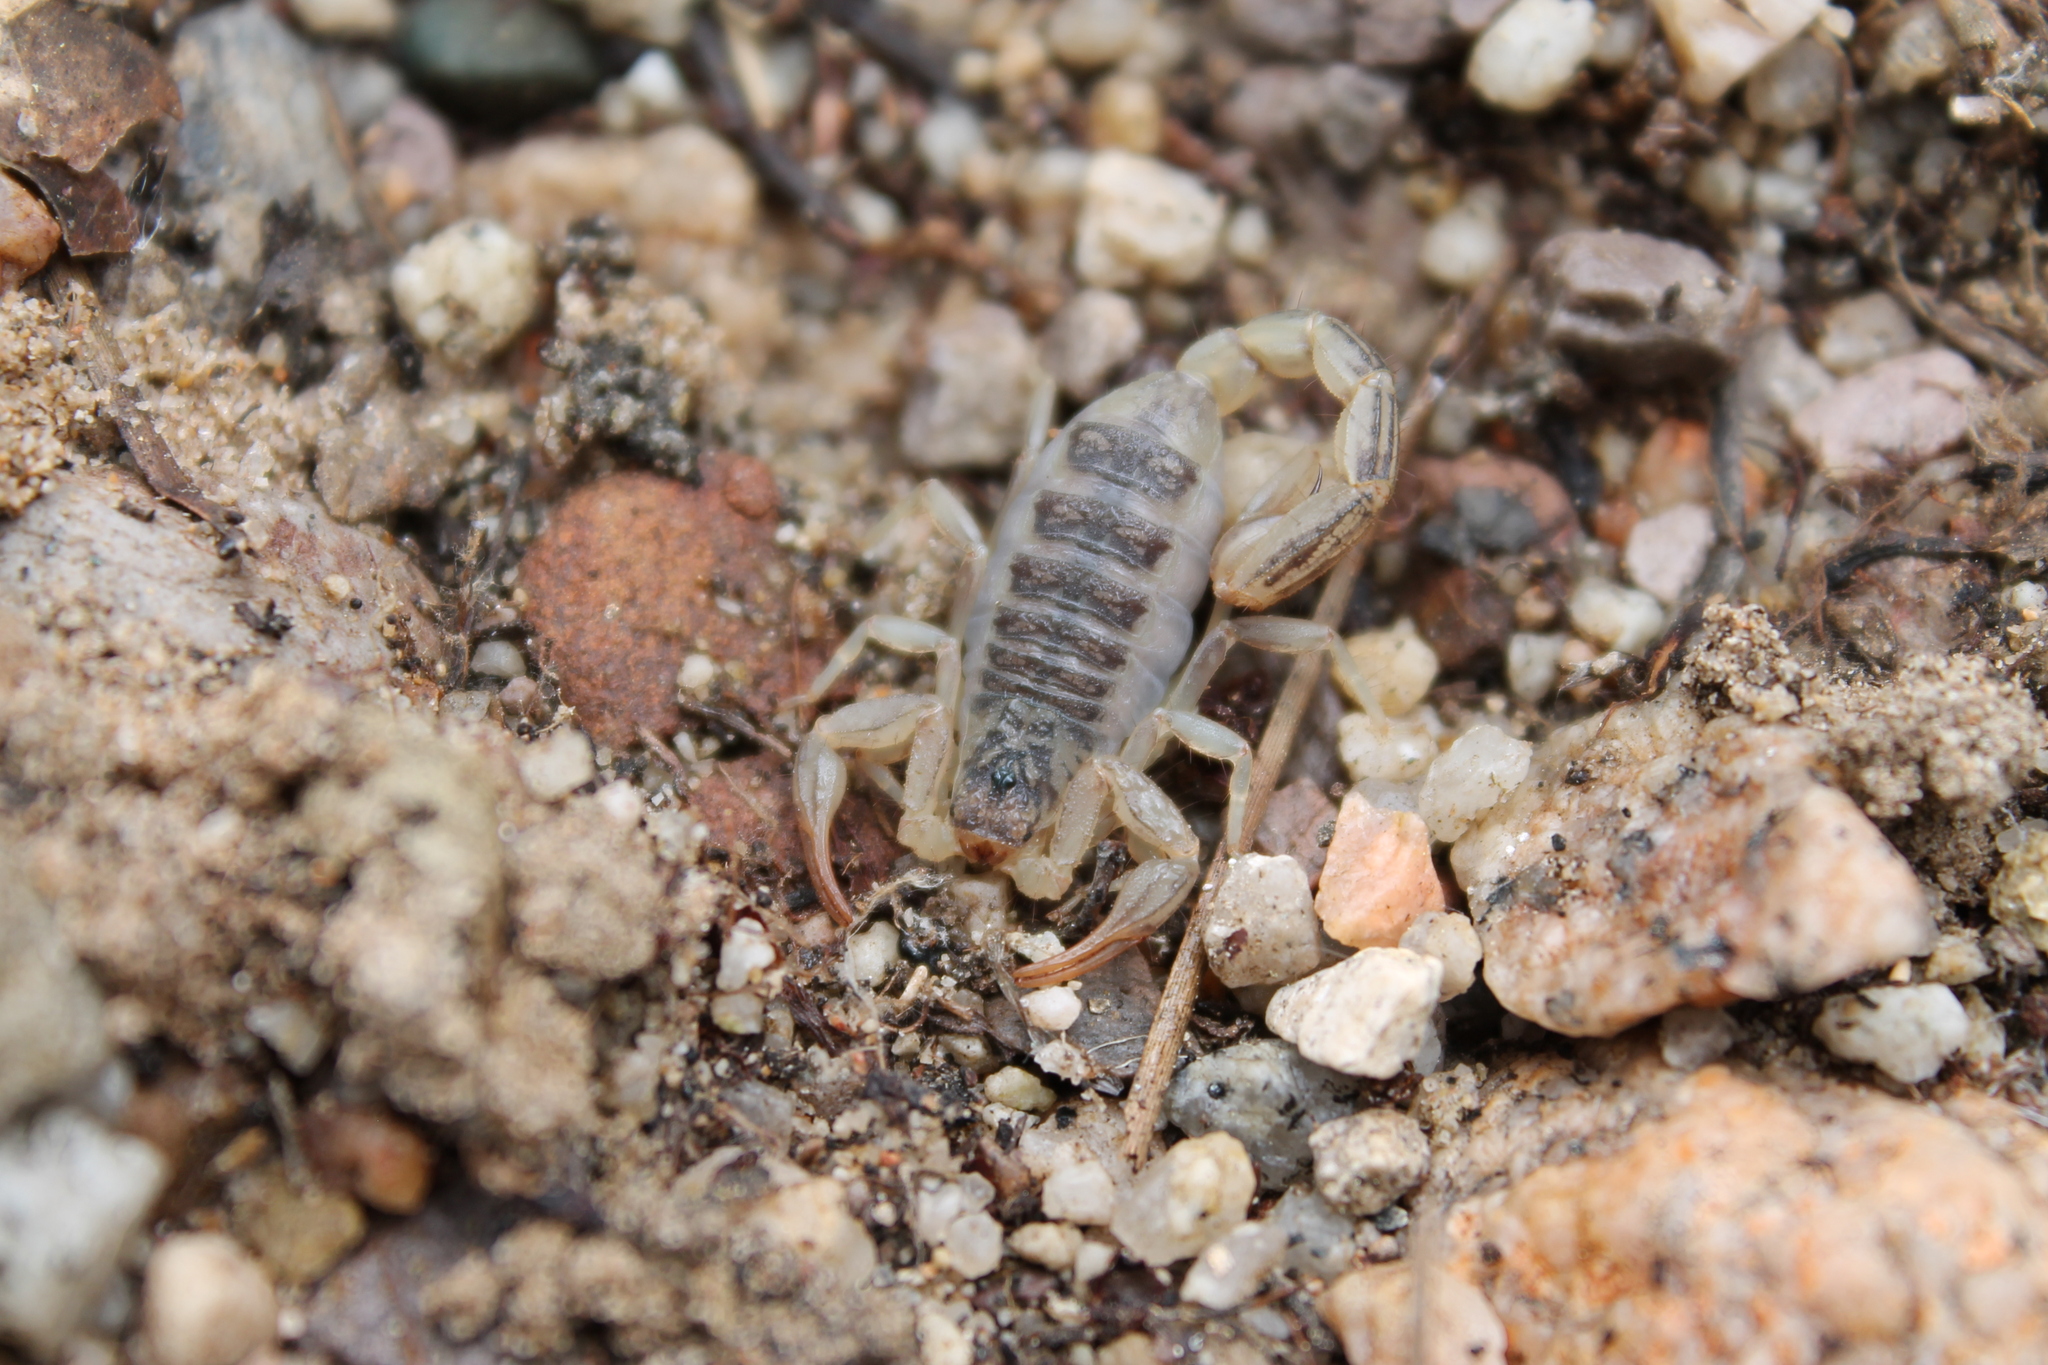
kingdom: Animalia
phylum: Arthropoda
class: Arachnida
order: Scorpiones
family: Vaejovidae
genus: Paruroctonus
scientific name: Paruroctonus silvestrii
